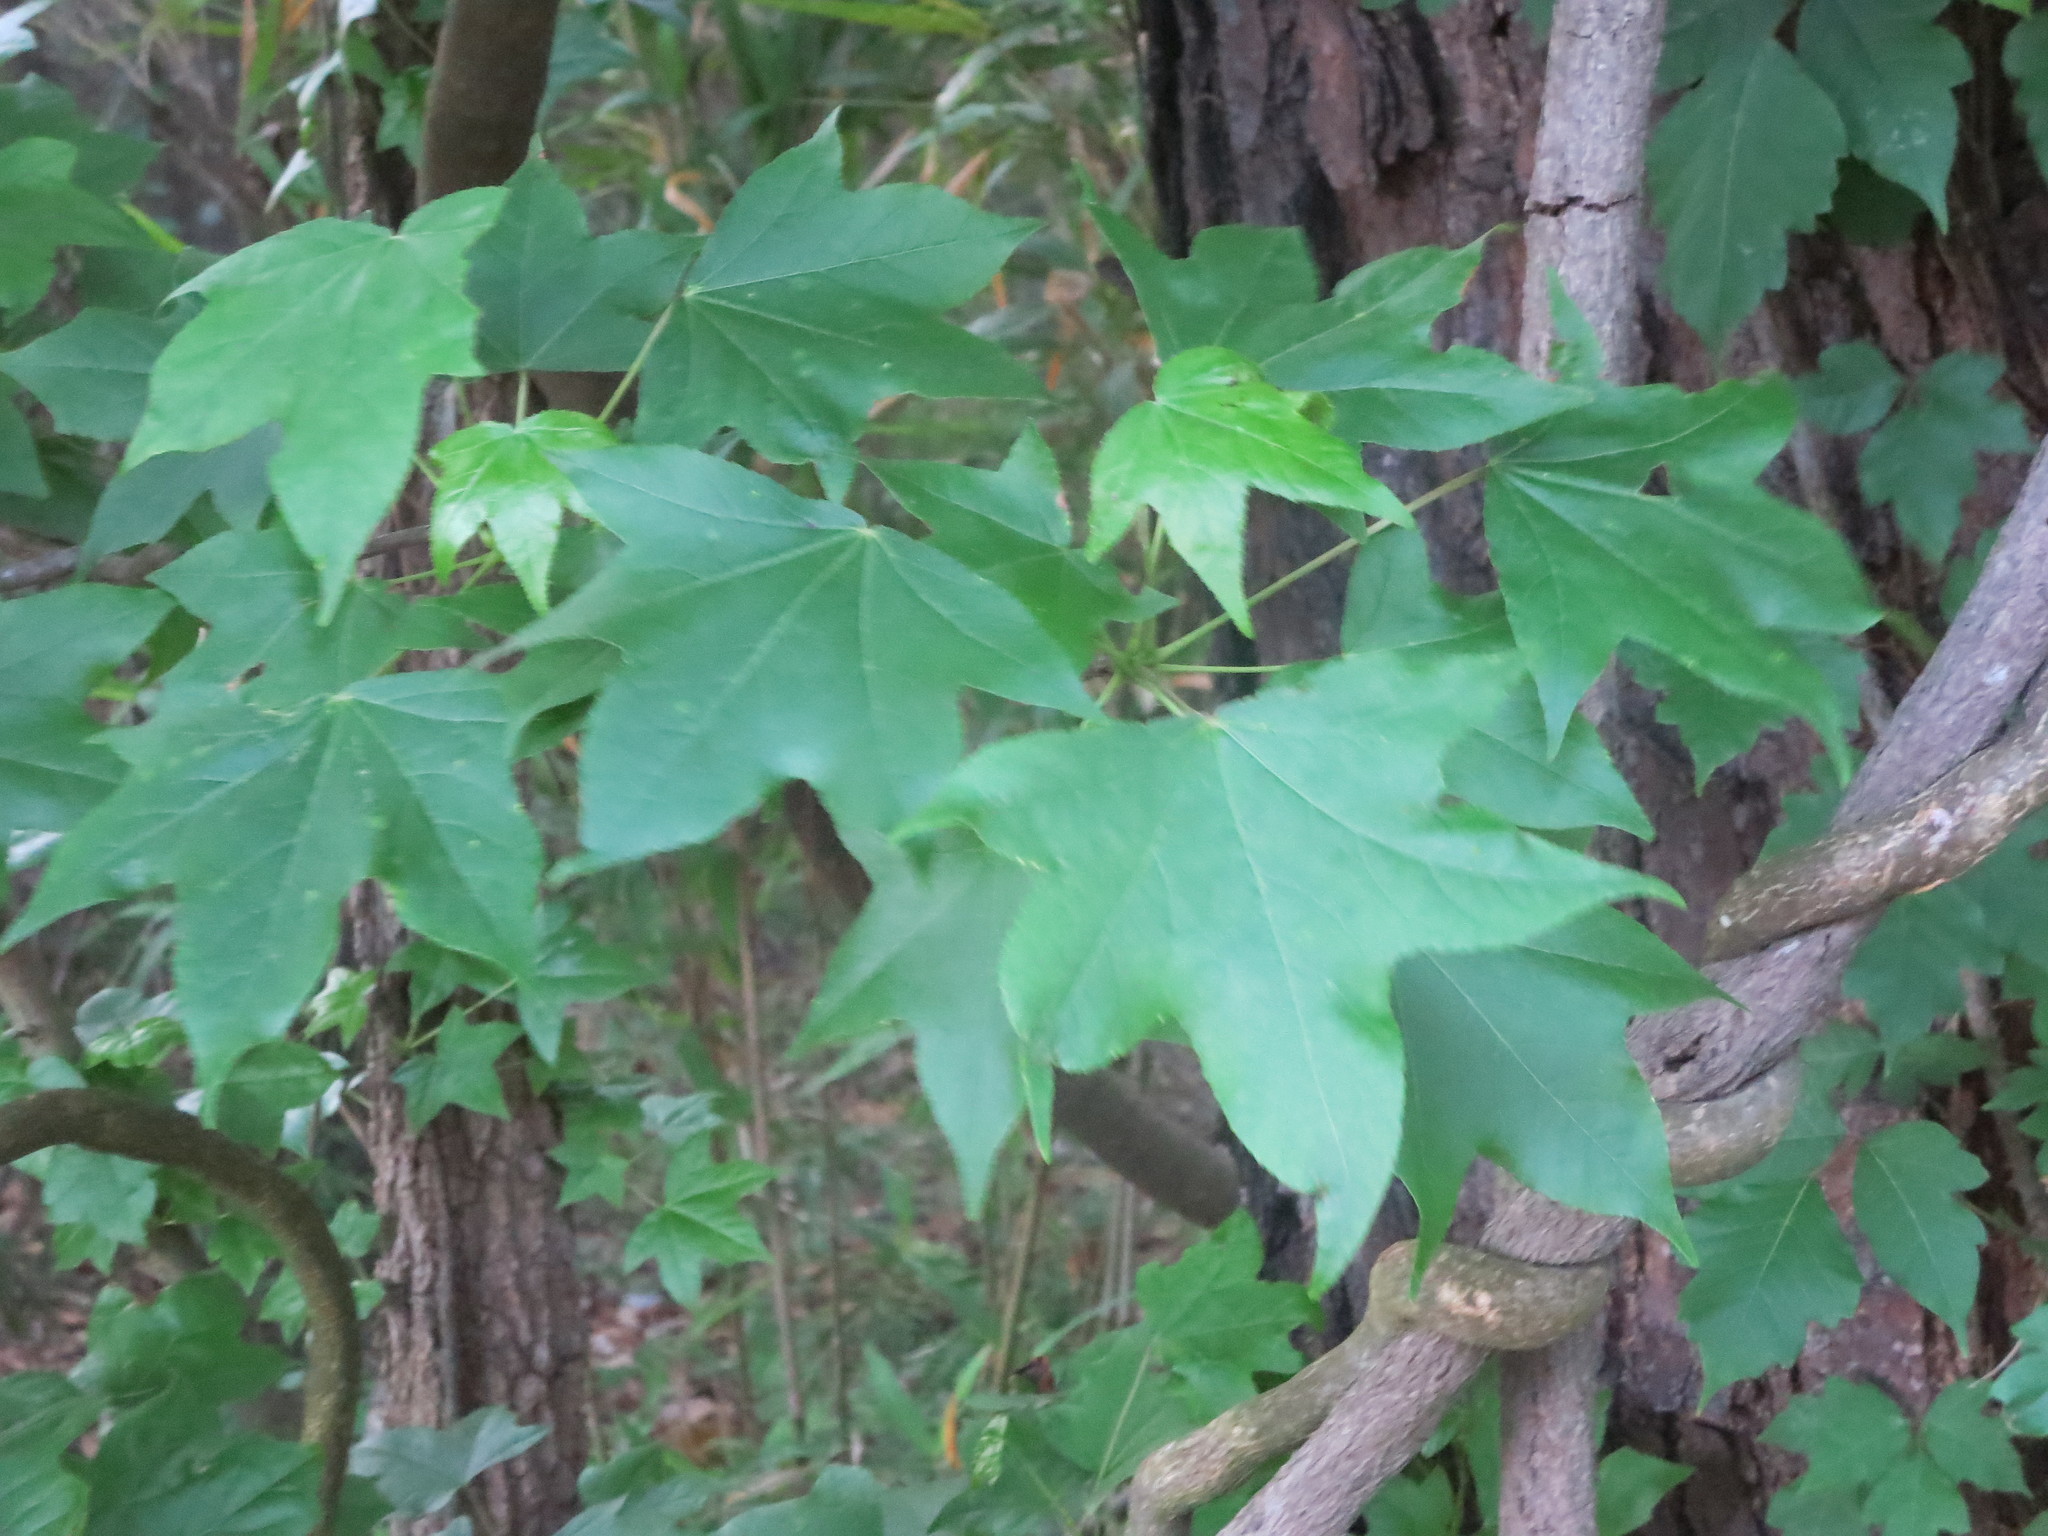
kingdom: Plantae
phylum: Tracheophyta
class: Magnoliopsida
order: Saxifragales
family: Altingiaceae
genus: Liquidambar
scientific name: Liquidambar styraciflua
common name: Sweet gum
